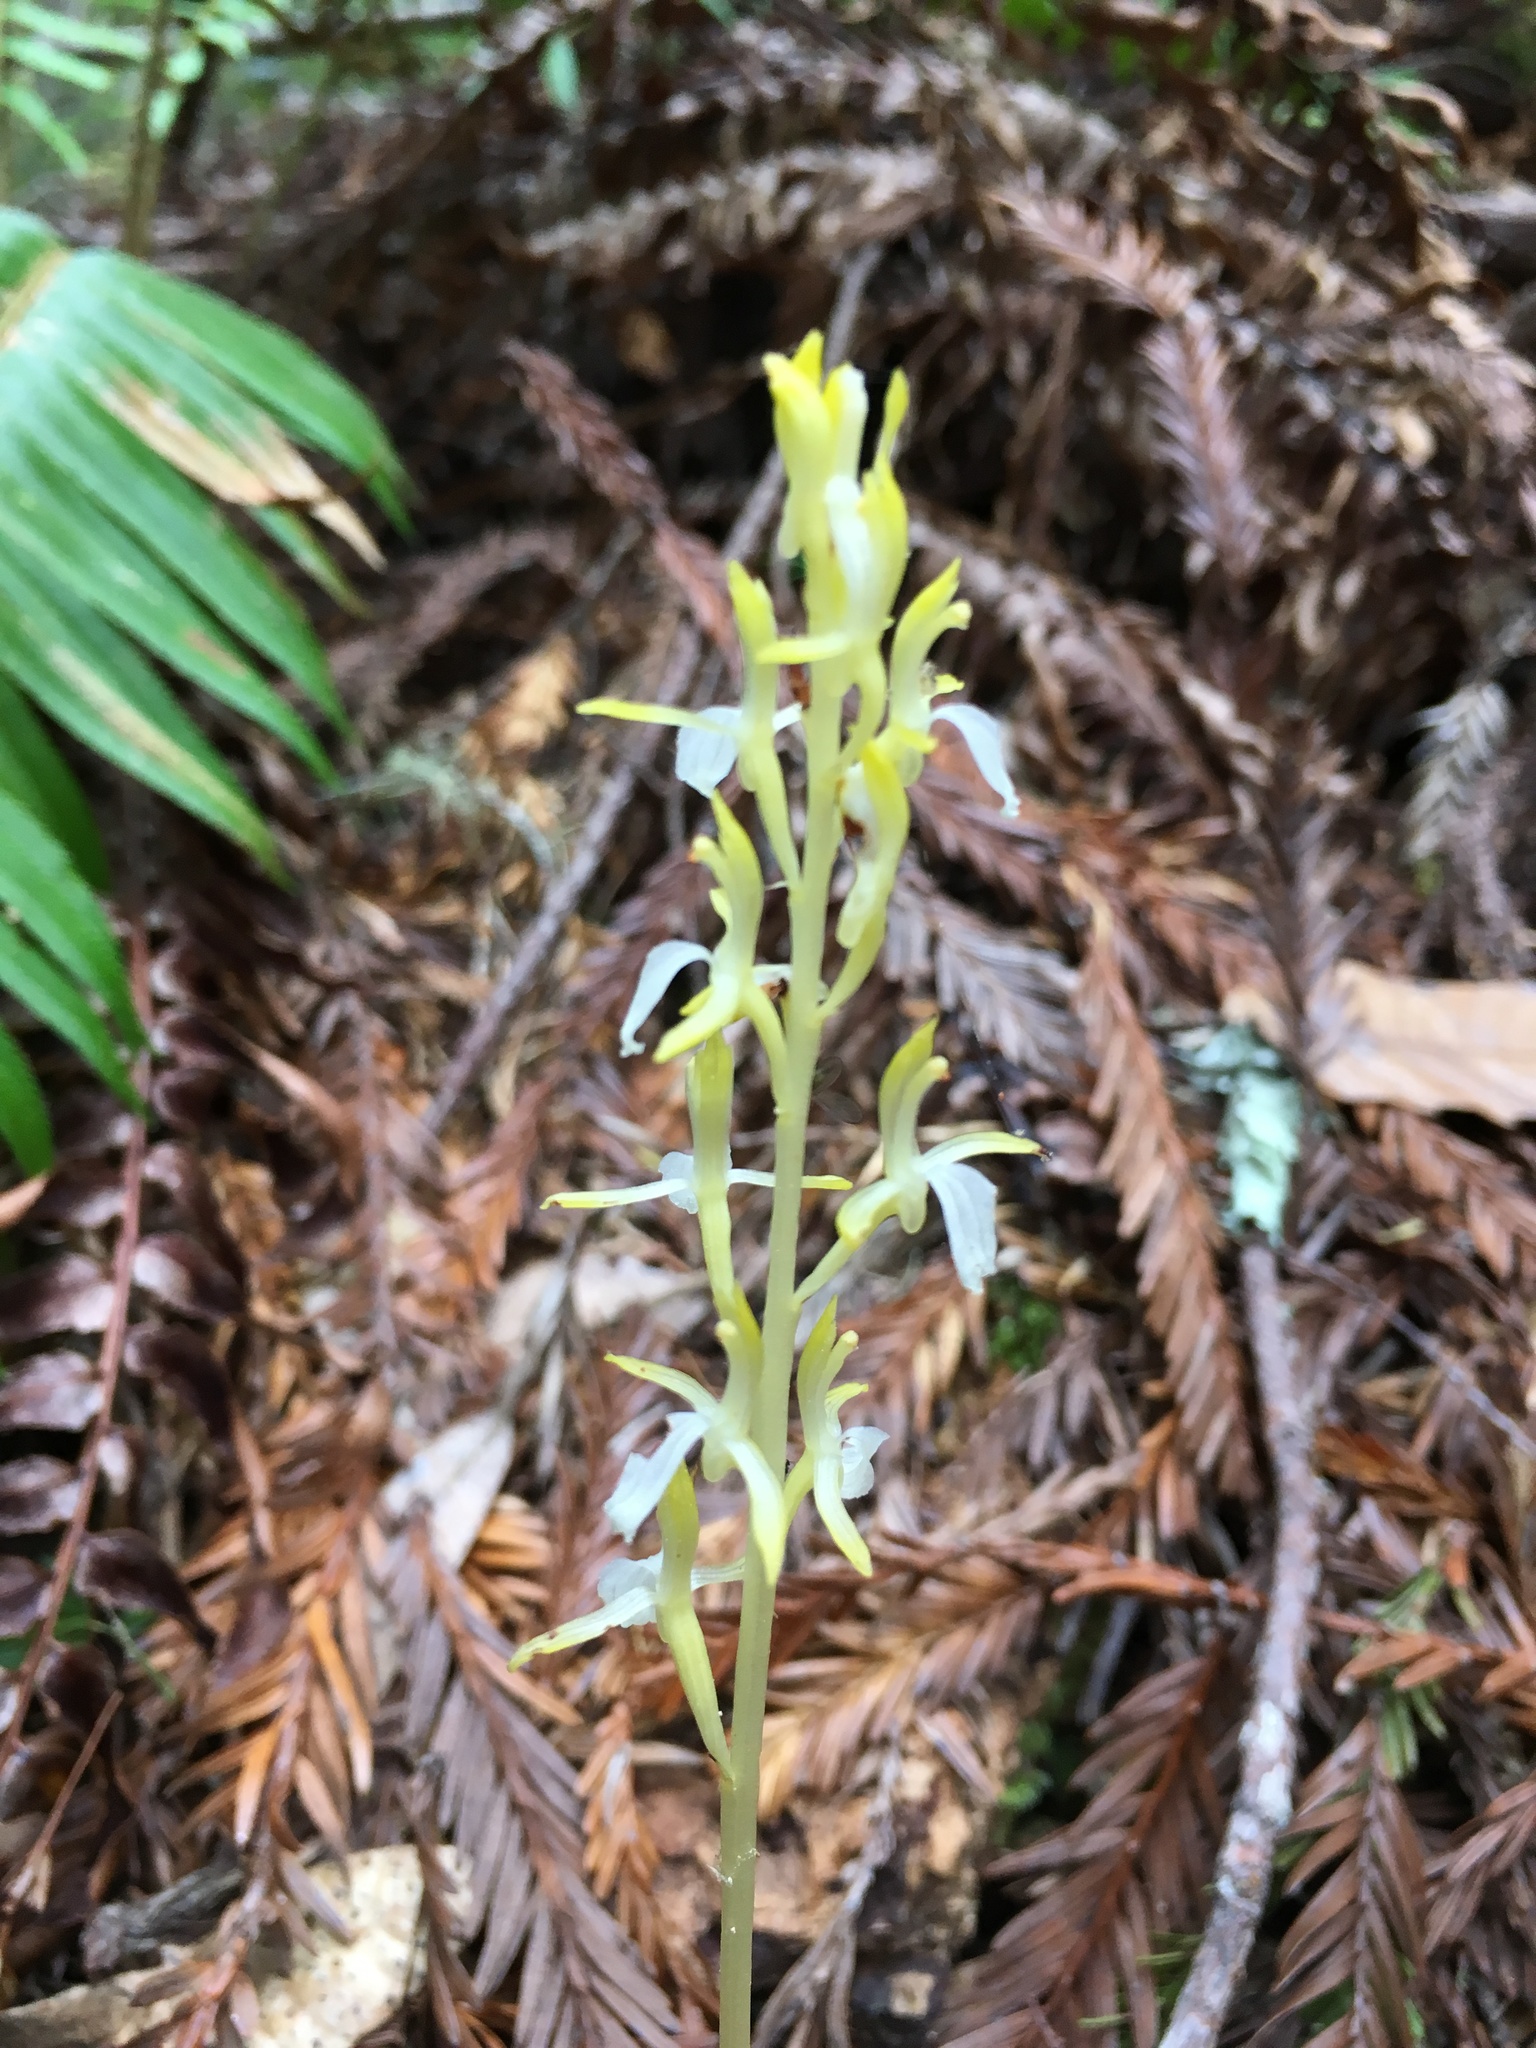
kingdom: Plantae
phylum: Tracheophyta
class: Liliopsida
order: Asparagales
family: Orchidaceae
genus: Corallorhiza
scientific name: Corallorhiza mertensiana
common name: Pacific coralroot
